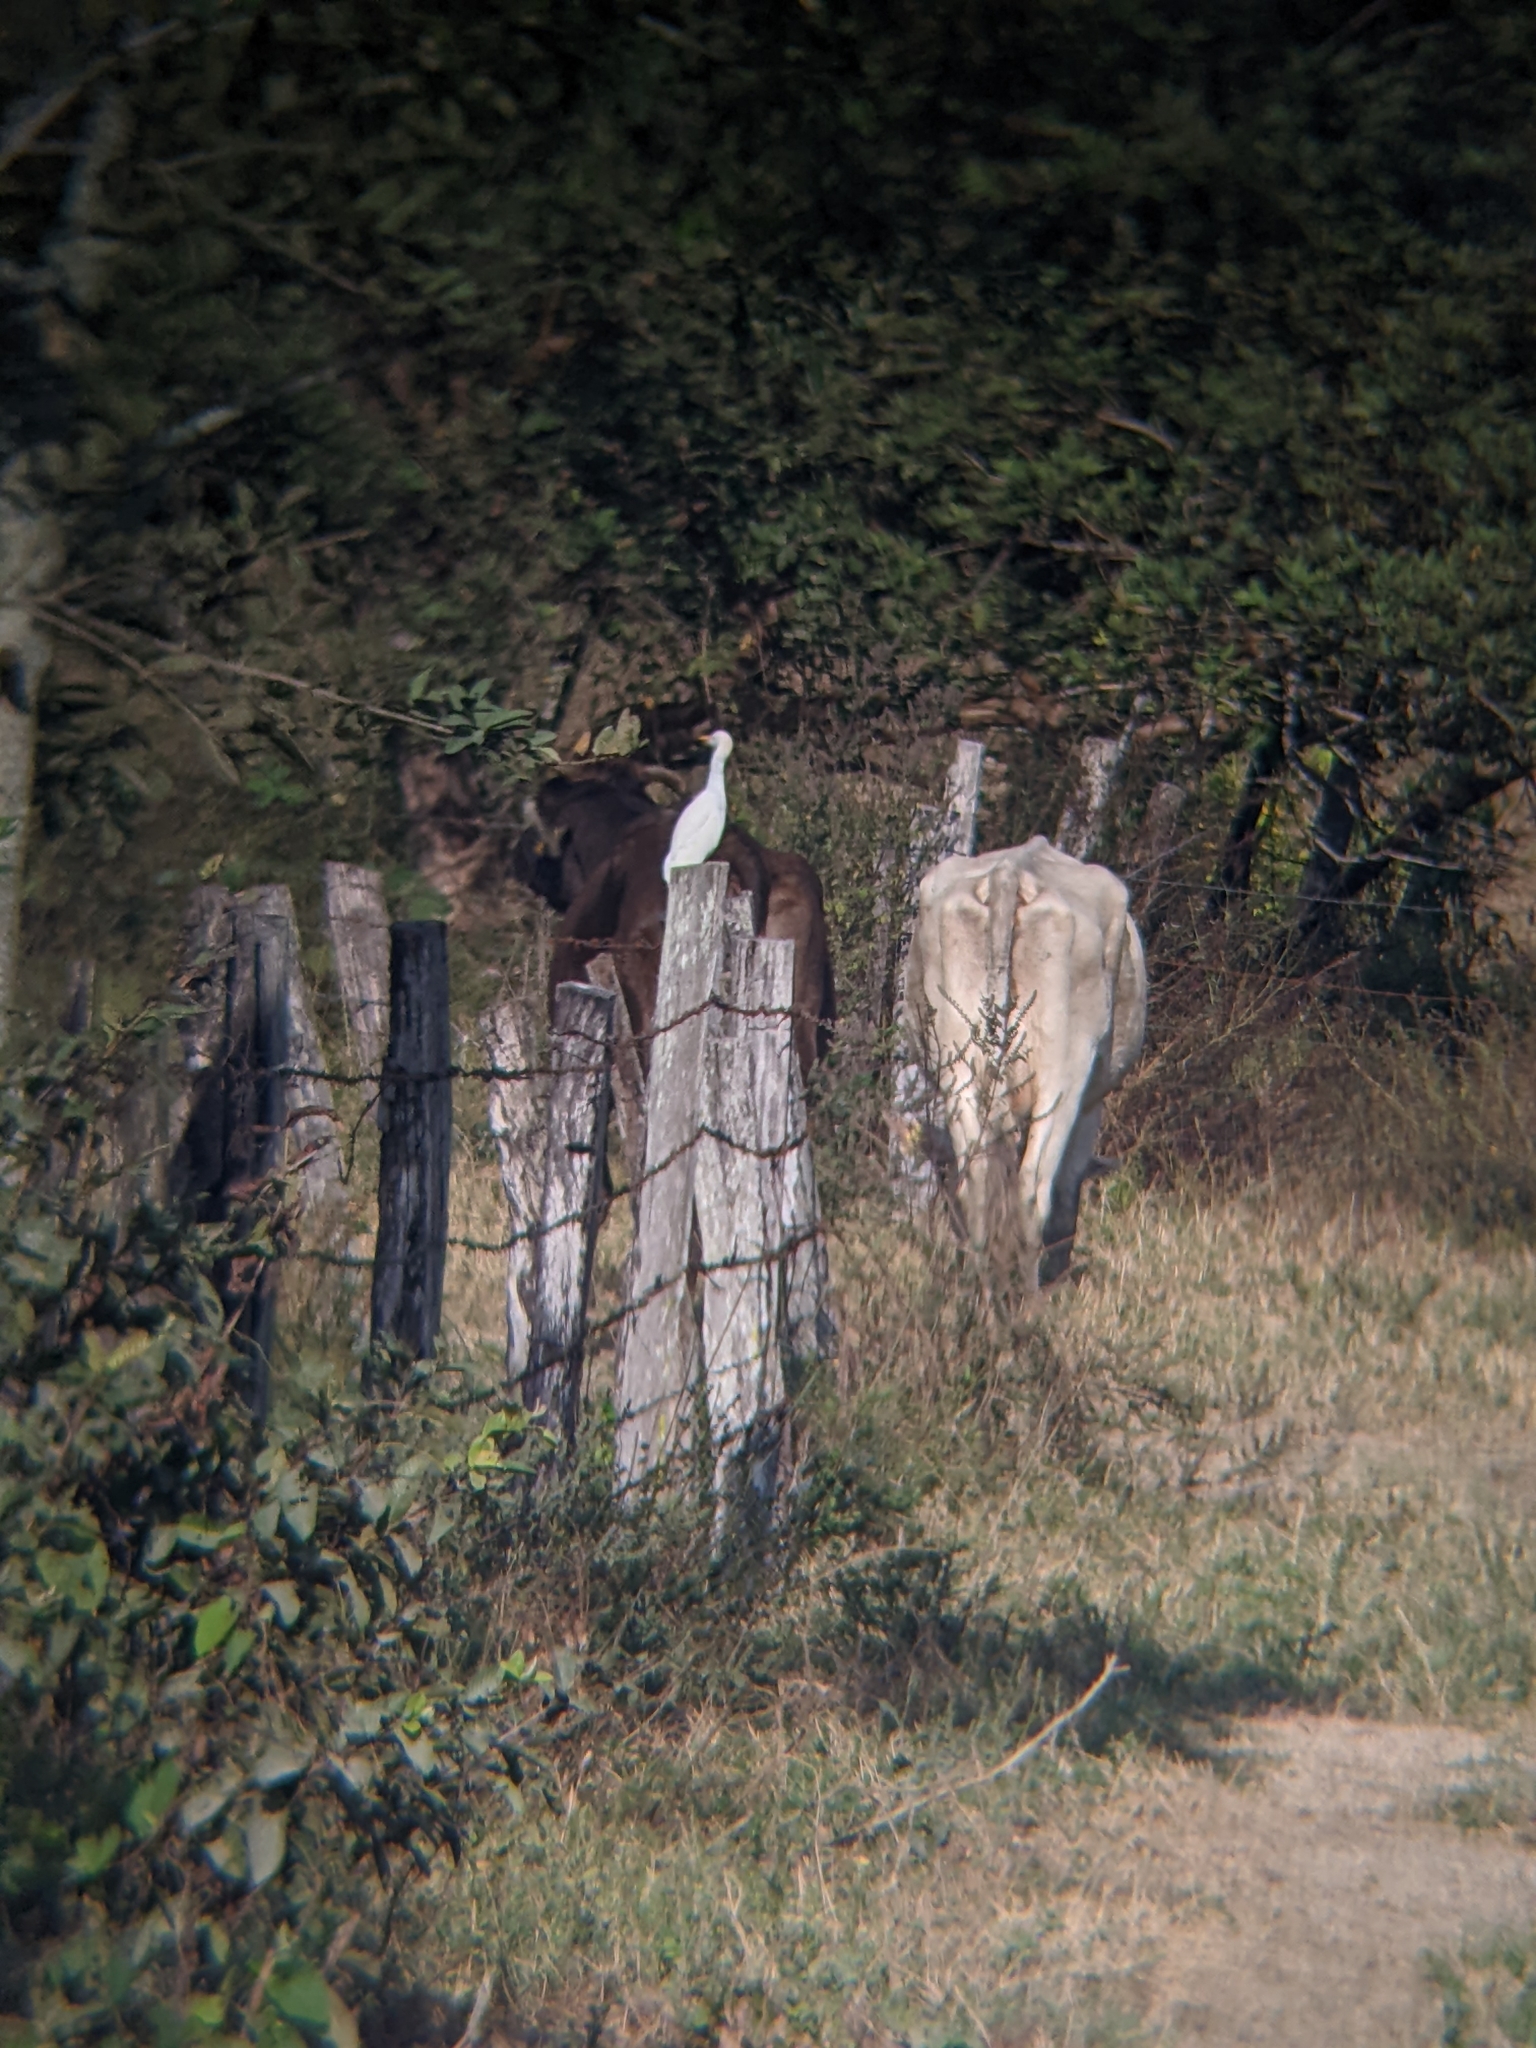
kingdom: Animalia
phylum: Chordata
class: Aves
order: Pelecaniformes
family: Ardeidae
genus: Bubulcus
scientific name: Bubulcus ibis
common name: Cattle egret
